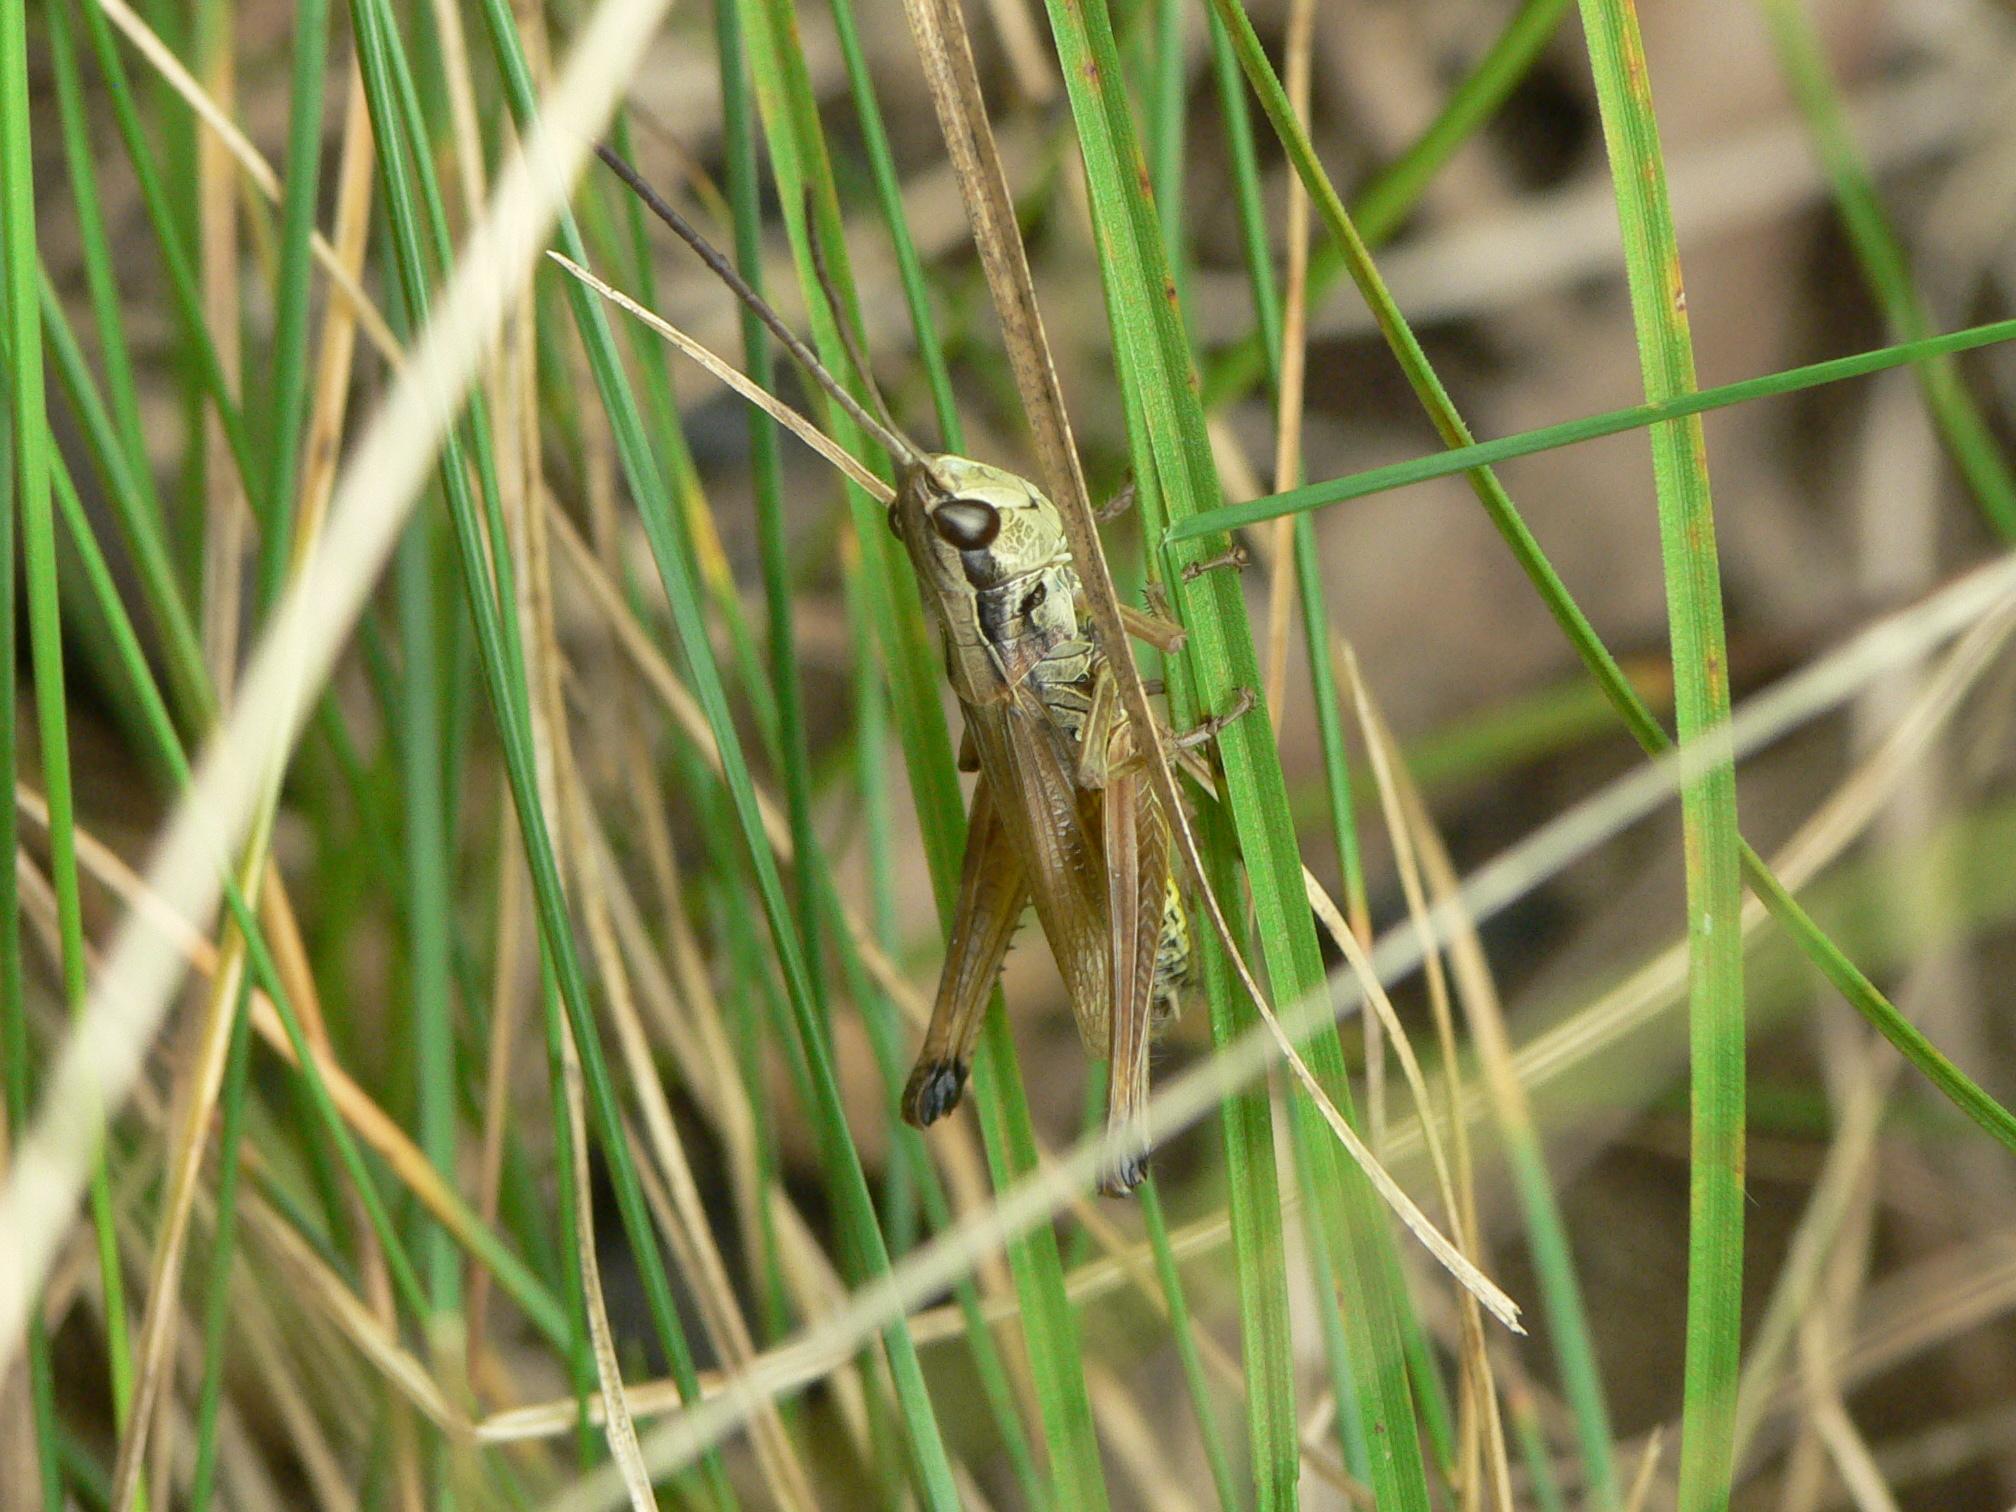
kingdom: Animalia
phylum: Arthropoda
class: Insecta
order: Orthoptera
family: Acrididae
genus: Pseudochorthippus
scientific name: Pseudochorthippus curtipennis
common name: Marsh meadow grasshopper
